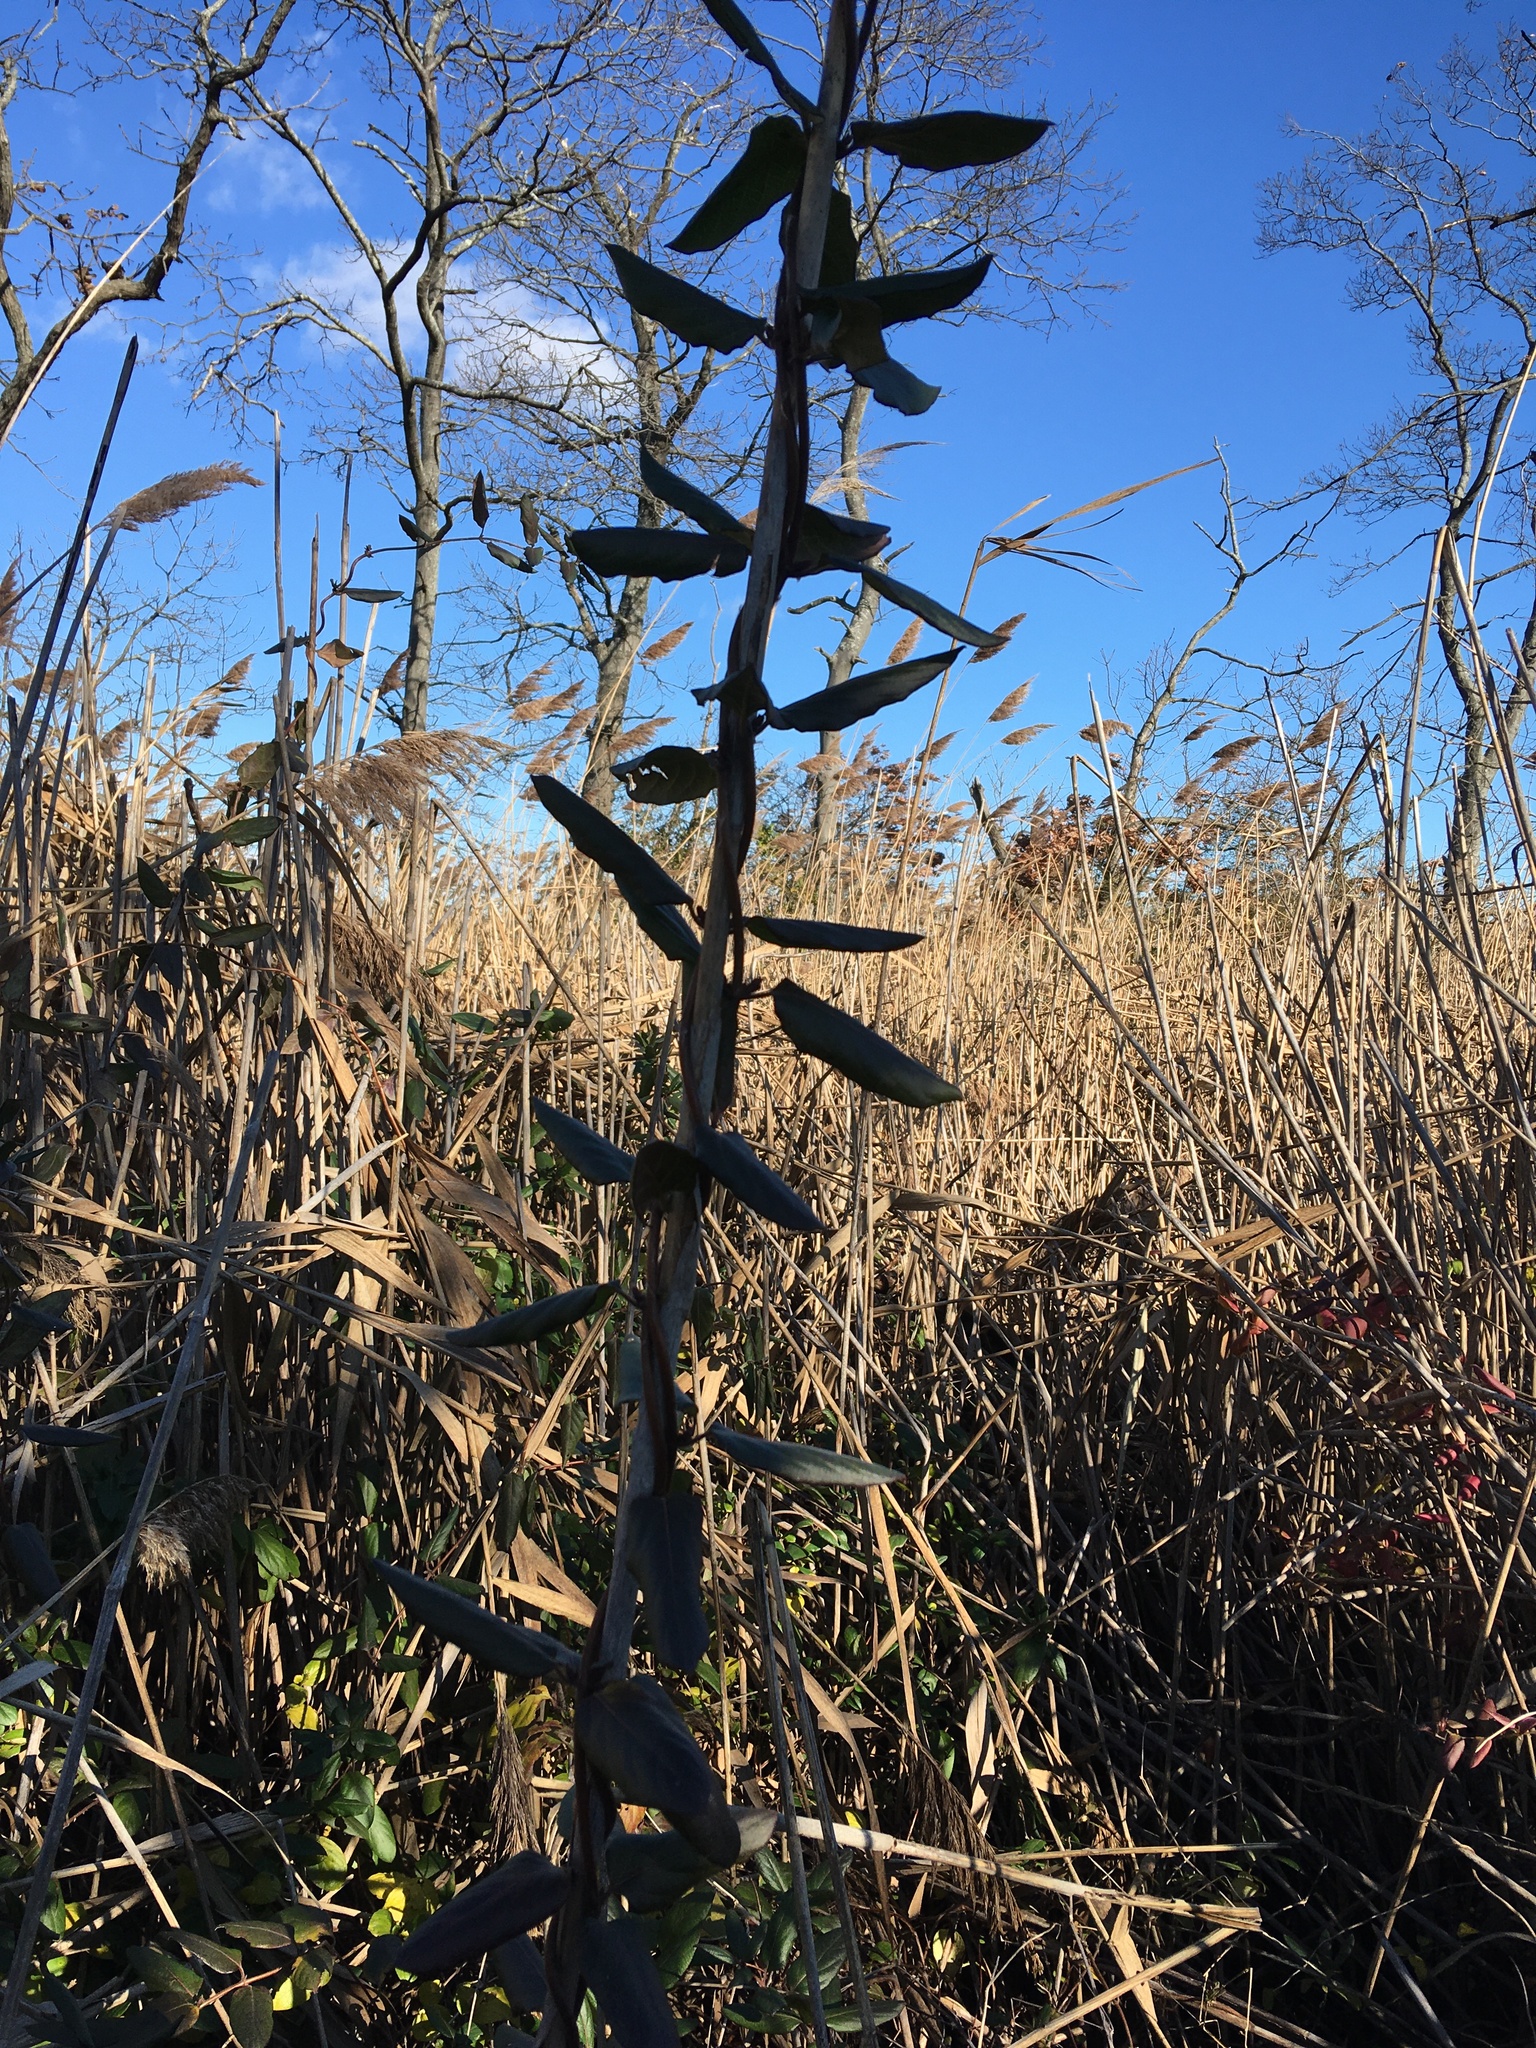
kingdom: Plantae
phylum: Tracheophyta
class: Magnoliopsida
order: Dipsacales
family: Caprifoliaceae
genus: Lonicera
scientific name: Lonicera japonica
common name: Japanese honeysuckle
